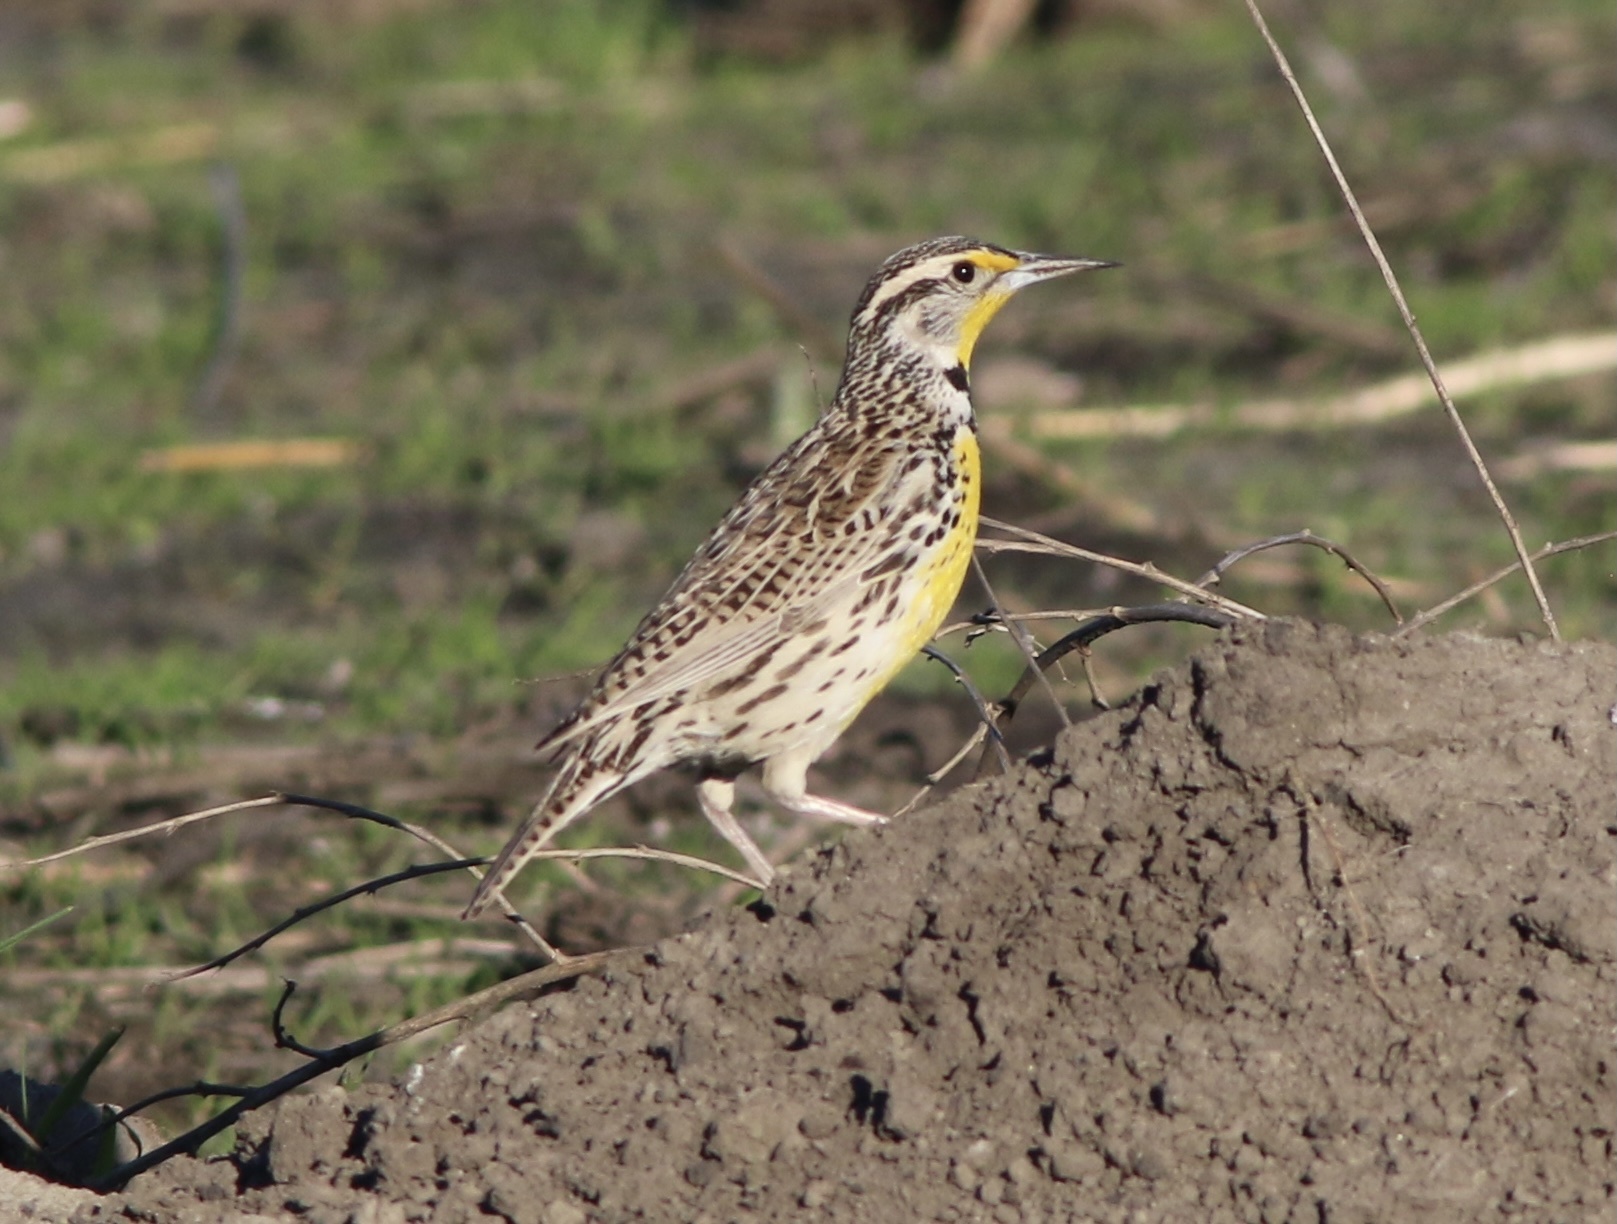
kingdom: Animalia
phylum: Chordata
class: Aves
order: Passeriformes
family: Icteridae
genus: Sturnella
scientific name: Sturnella neglecta
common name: Western meadowlark
